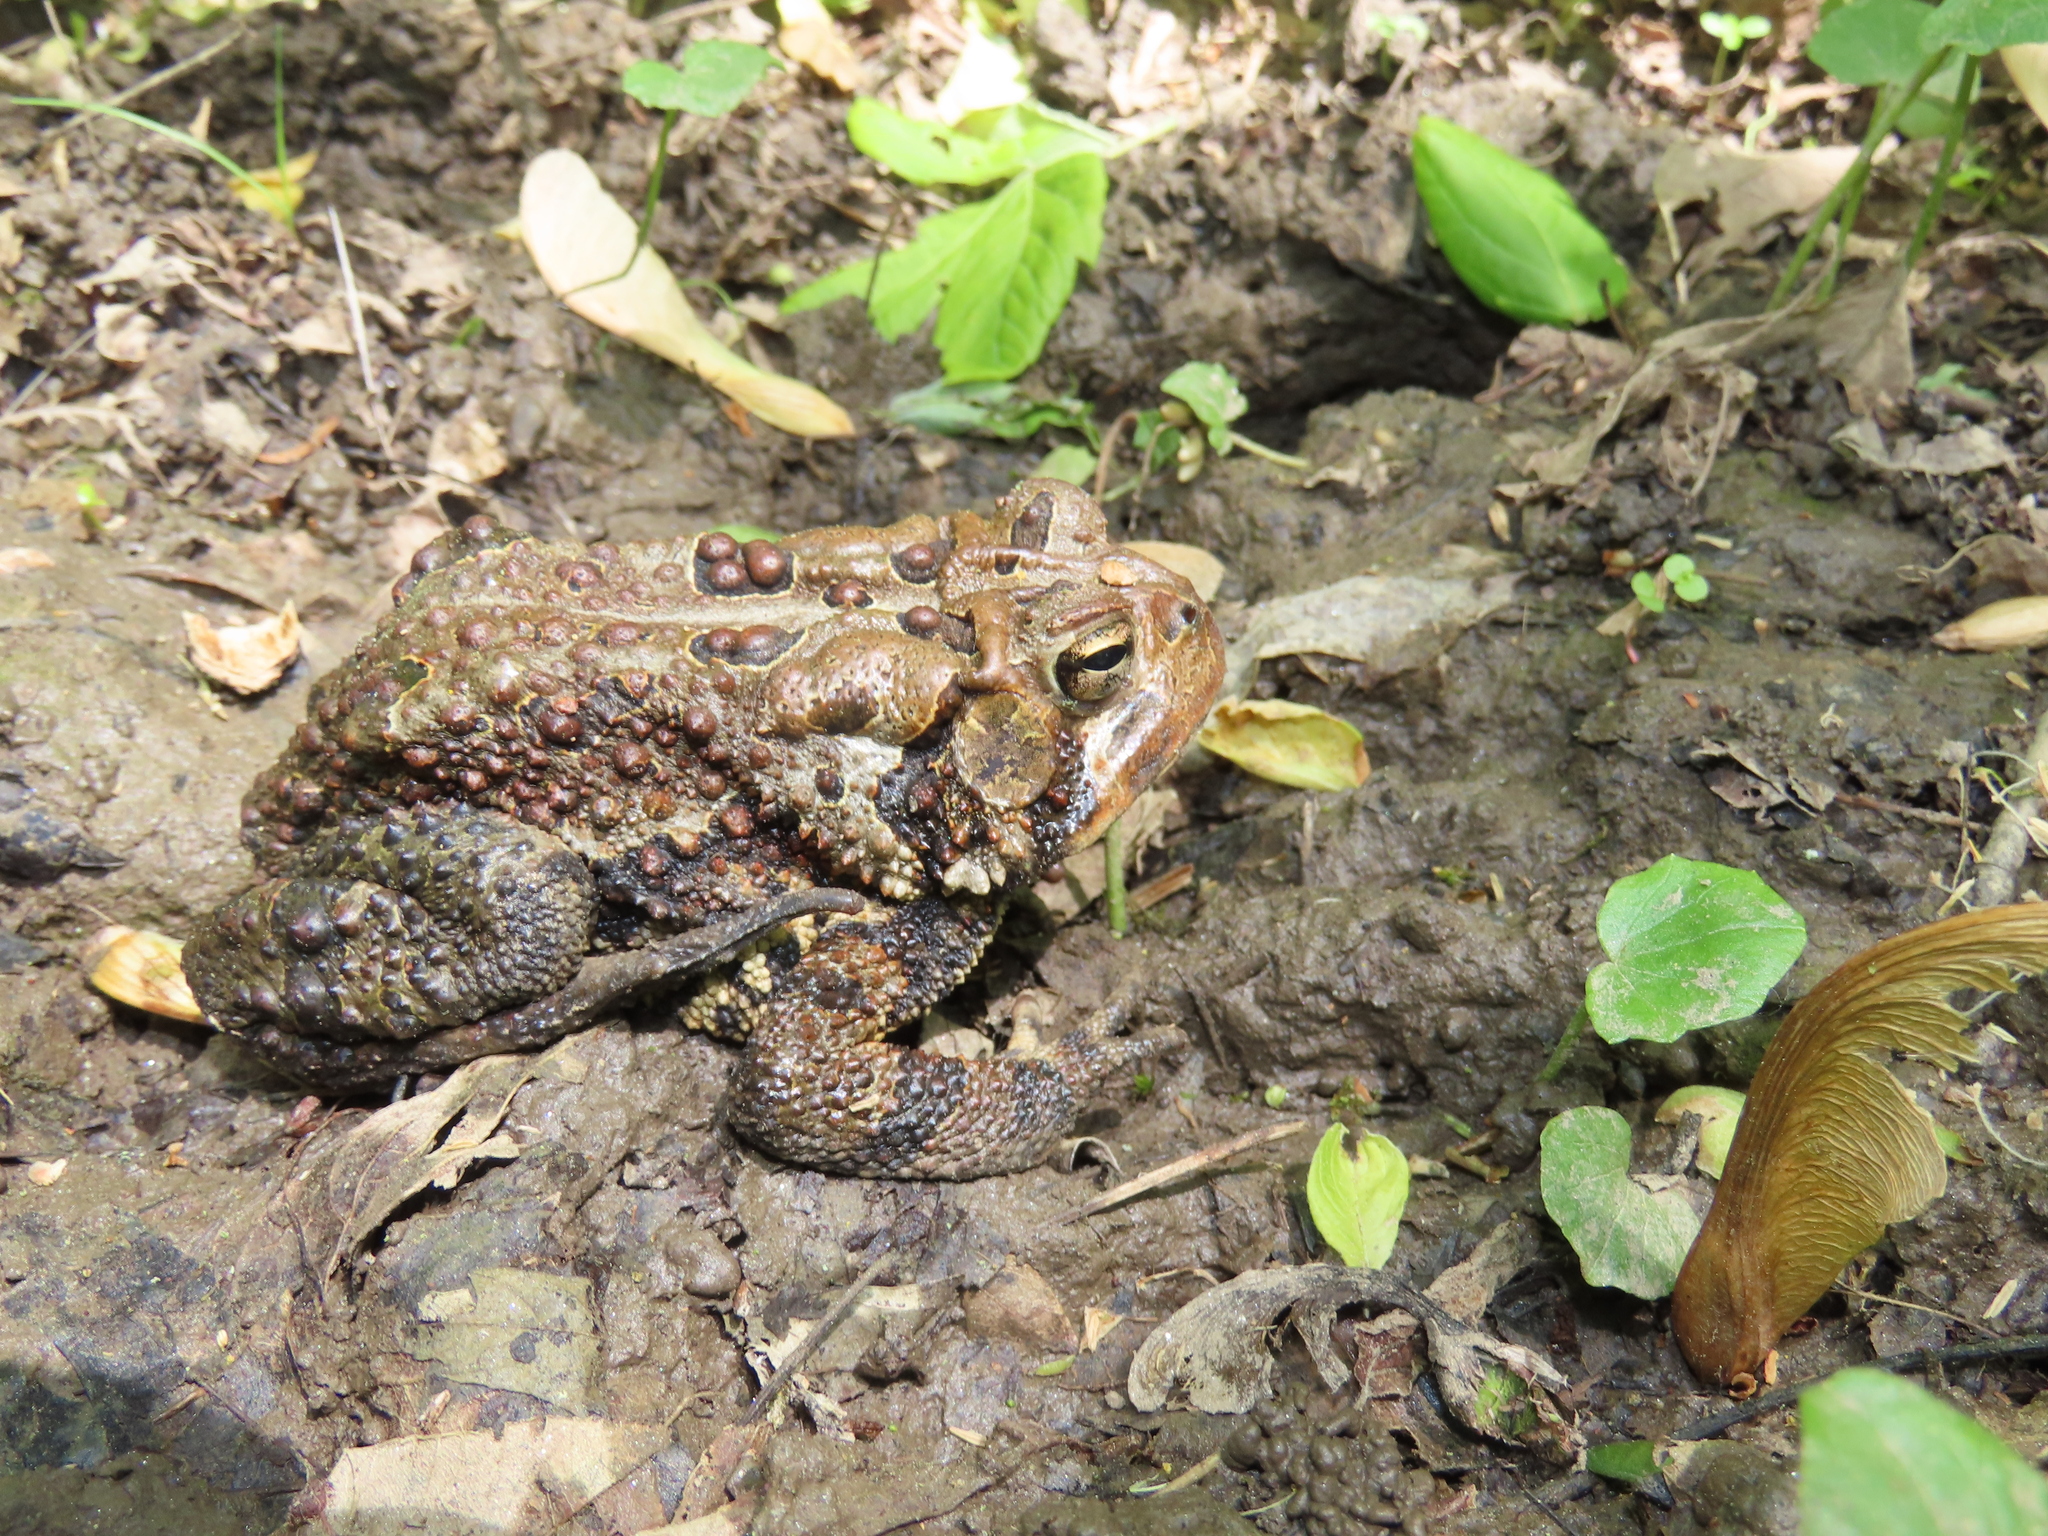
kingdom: Animalia
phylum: Chordata
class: Amphibia
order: Anura
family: Bufonidae
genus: Anaxyrus
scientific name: Anaxyrus americanus
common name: American toad
